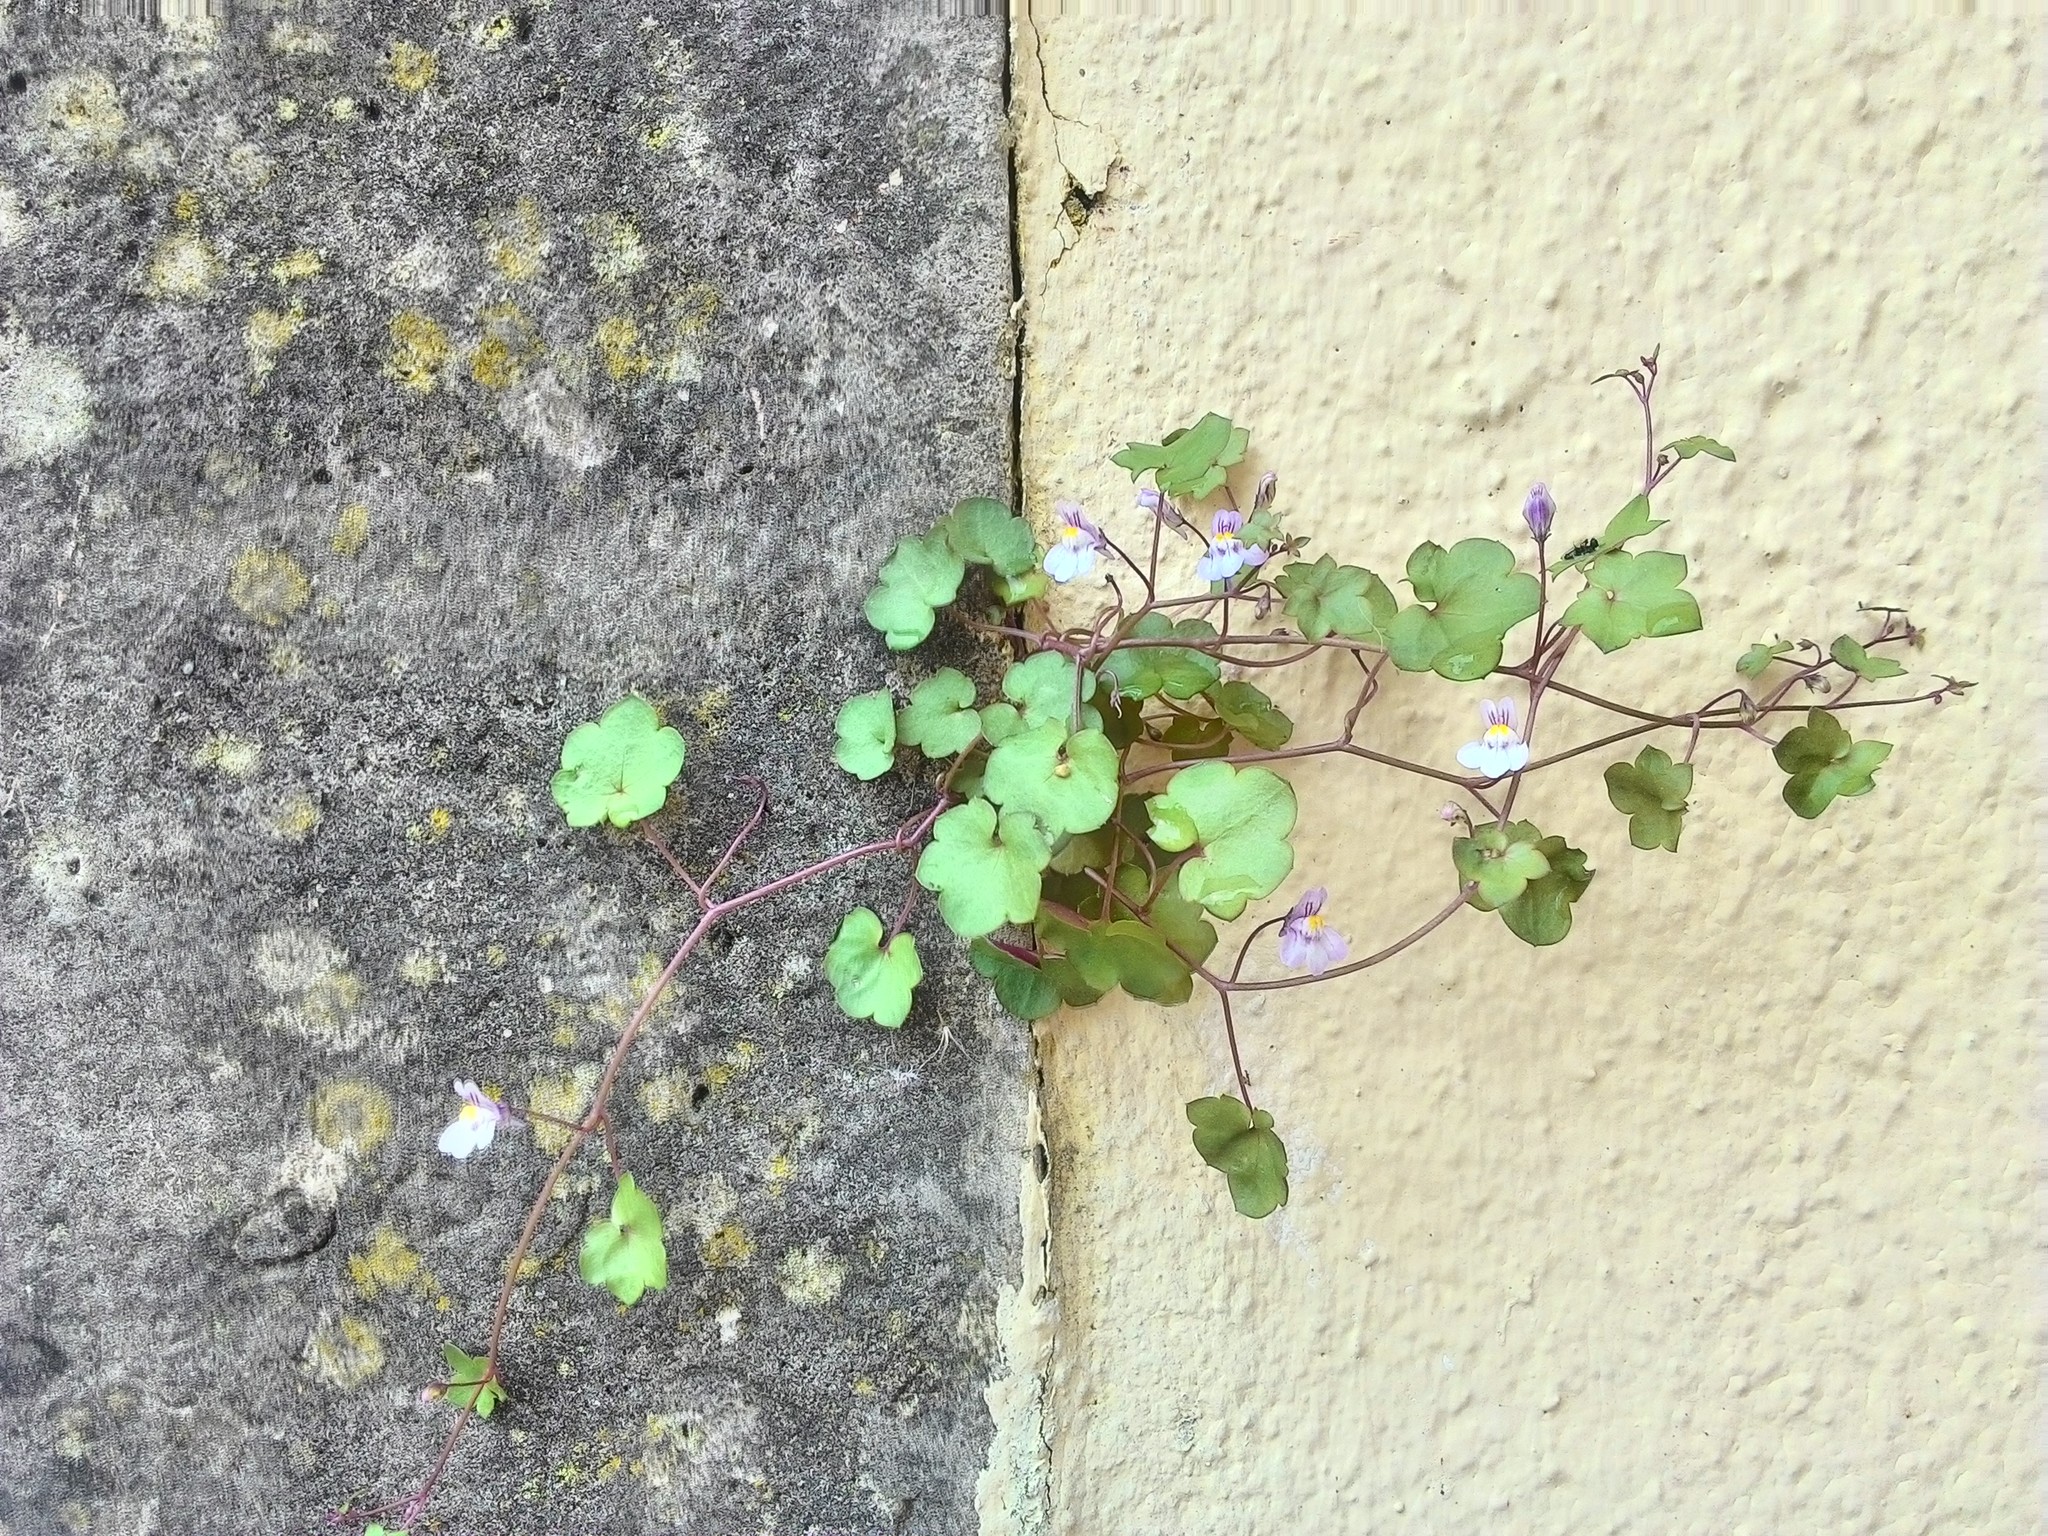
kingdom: Plantae
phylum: Tracheophyta
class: Magnoliopsida
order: Lamiales
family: Plantaginaceae
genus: Cymbalaria
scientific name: Cymbalaria muralis
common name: Ivy-leaved toadflax
